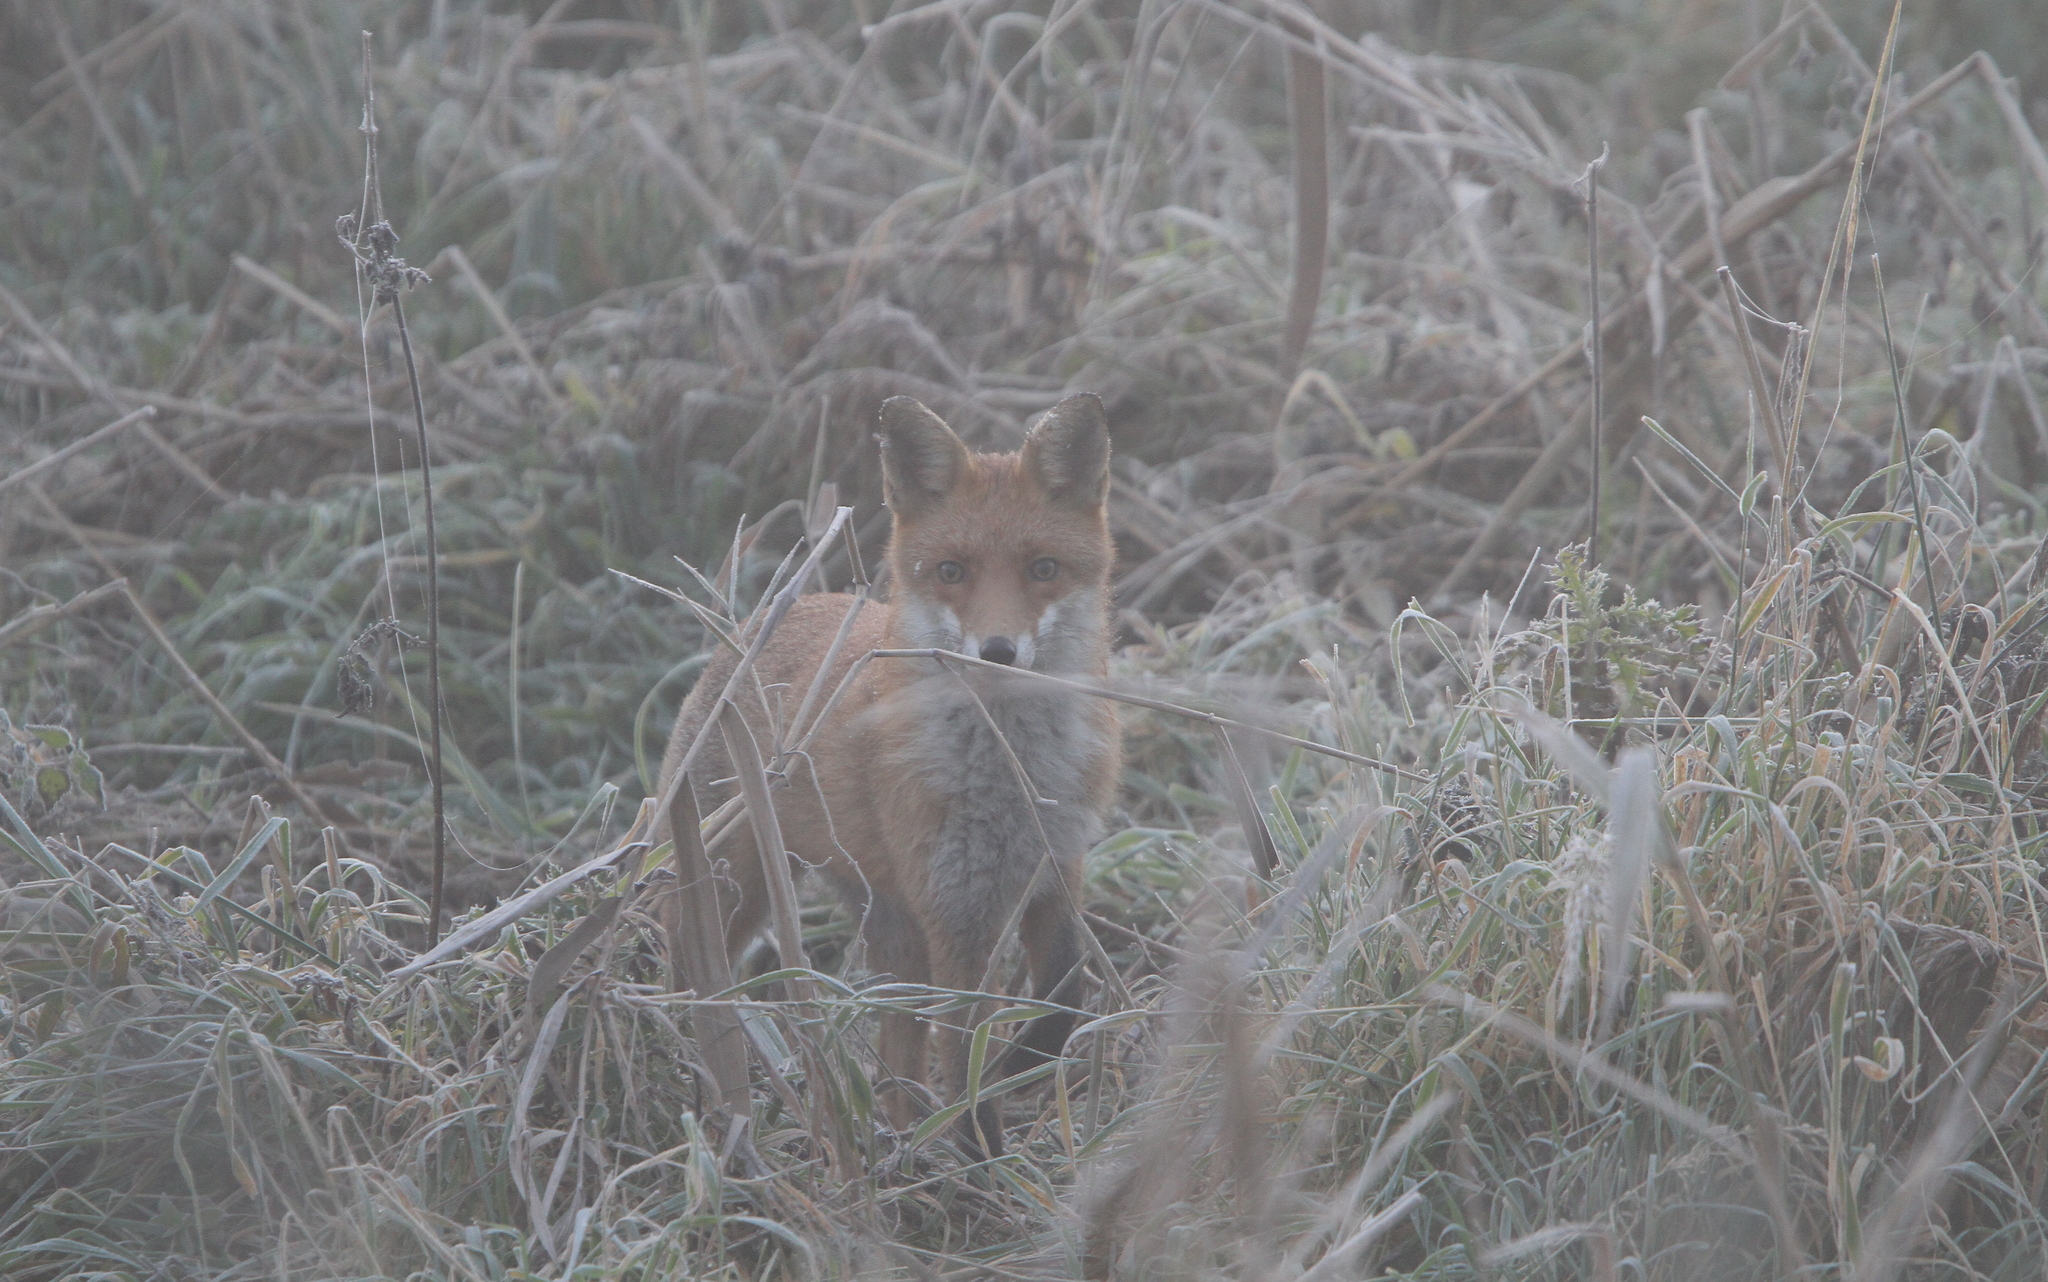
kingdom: Animalia
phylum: Chordata
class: Mammalia
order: Carnivora
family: Canidae
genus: Vulpes
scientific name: Vulpes vulpes
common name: Red fox
